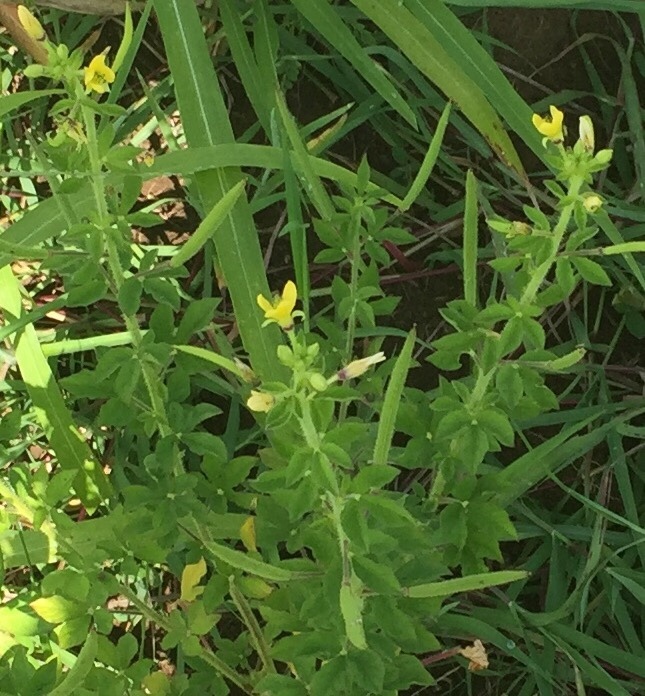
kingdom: Plantae
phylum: Tracheophyta
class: Magnoliopsida
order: Brassicales
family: Cleomaceae
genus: Arivela
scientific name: Arivela viscosa
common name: Asian spiderflower
